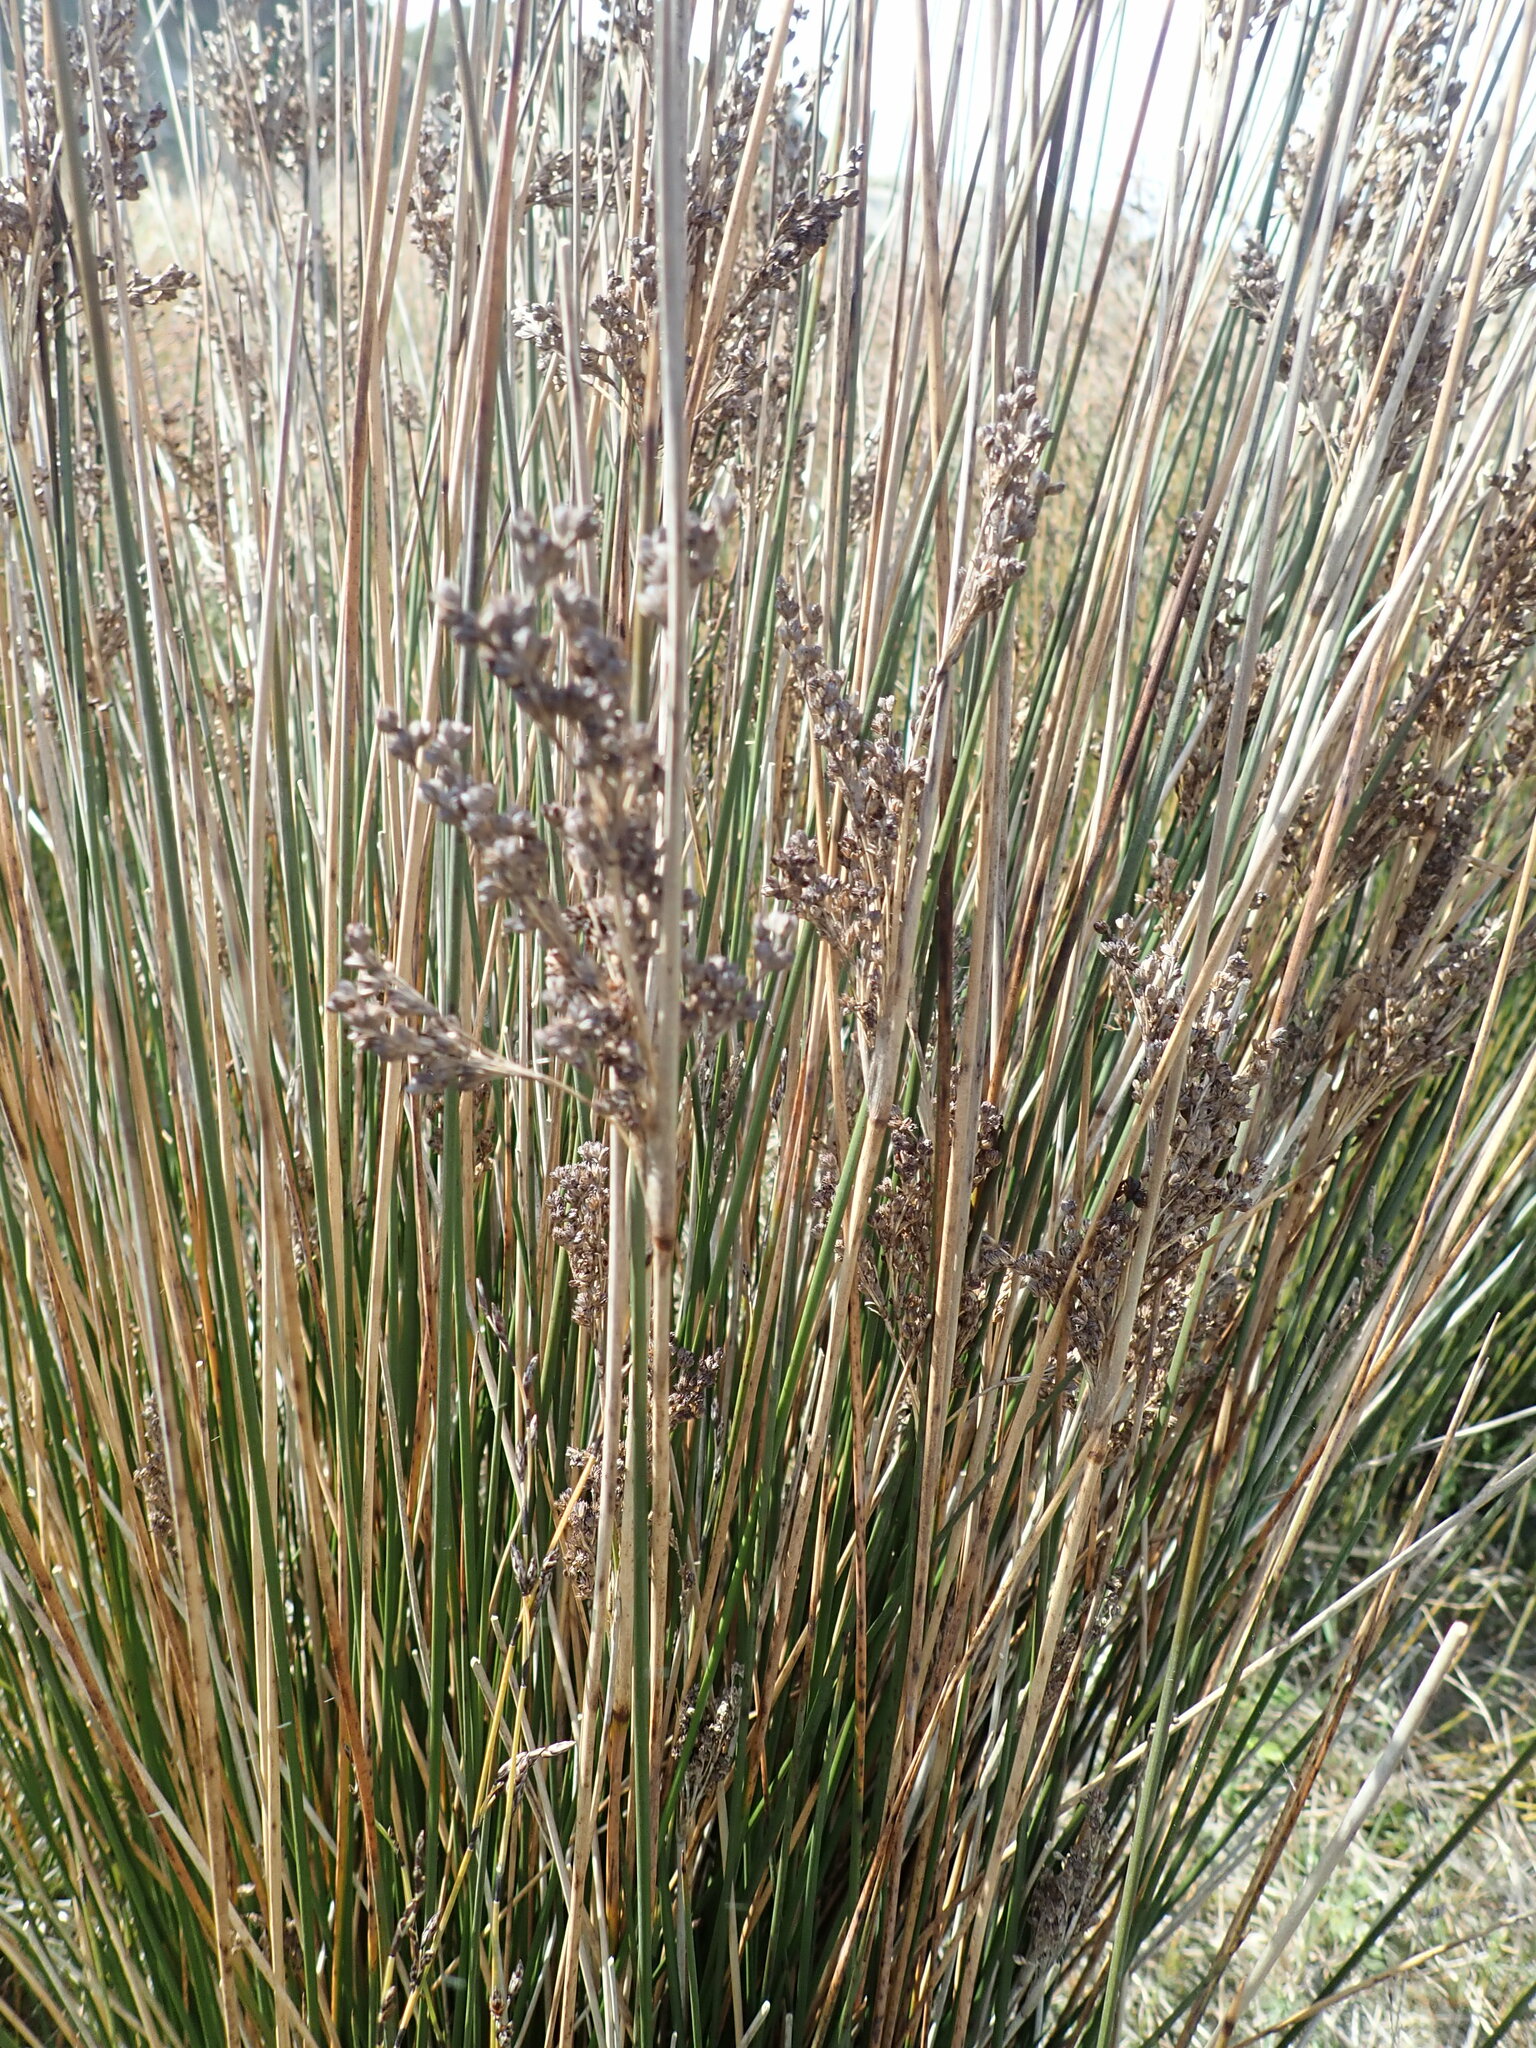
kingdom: Plantae
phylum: Tracheophyta
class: Liliopsida
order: Poales
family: Juncaceae
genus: Juncus
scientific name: Juncus kraussii
